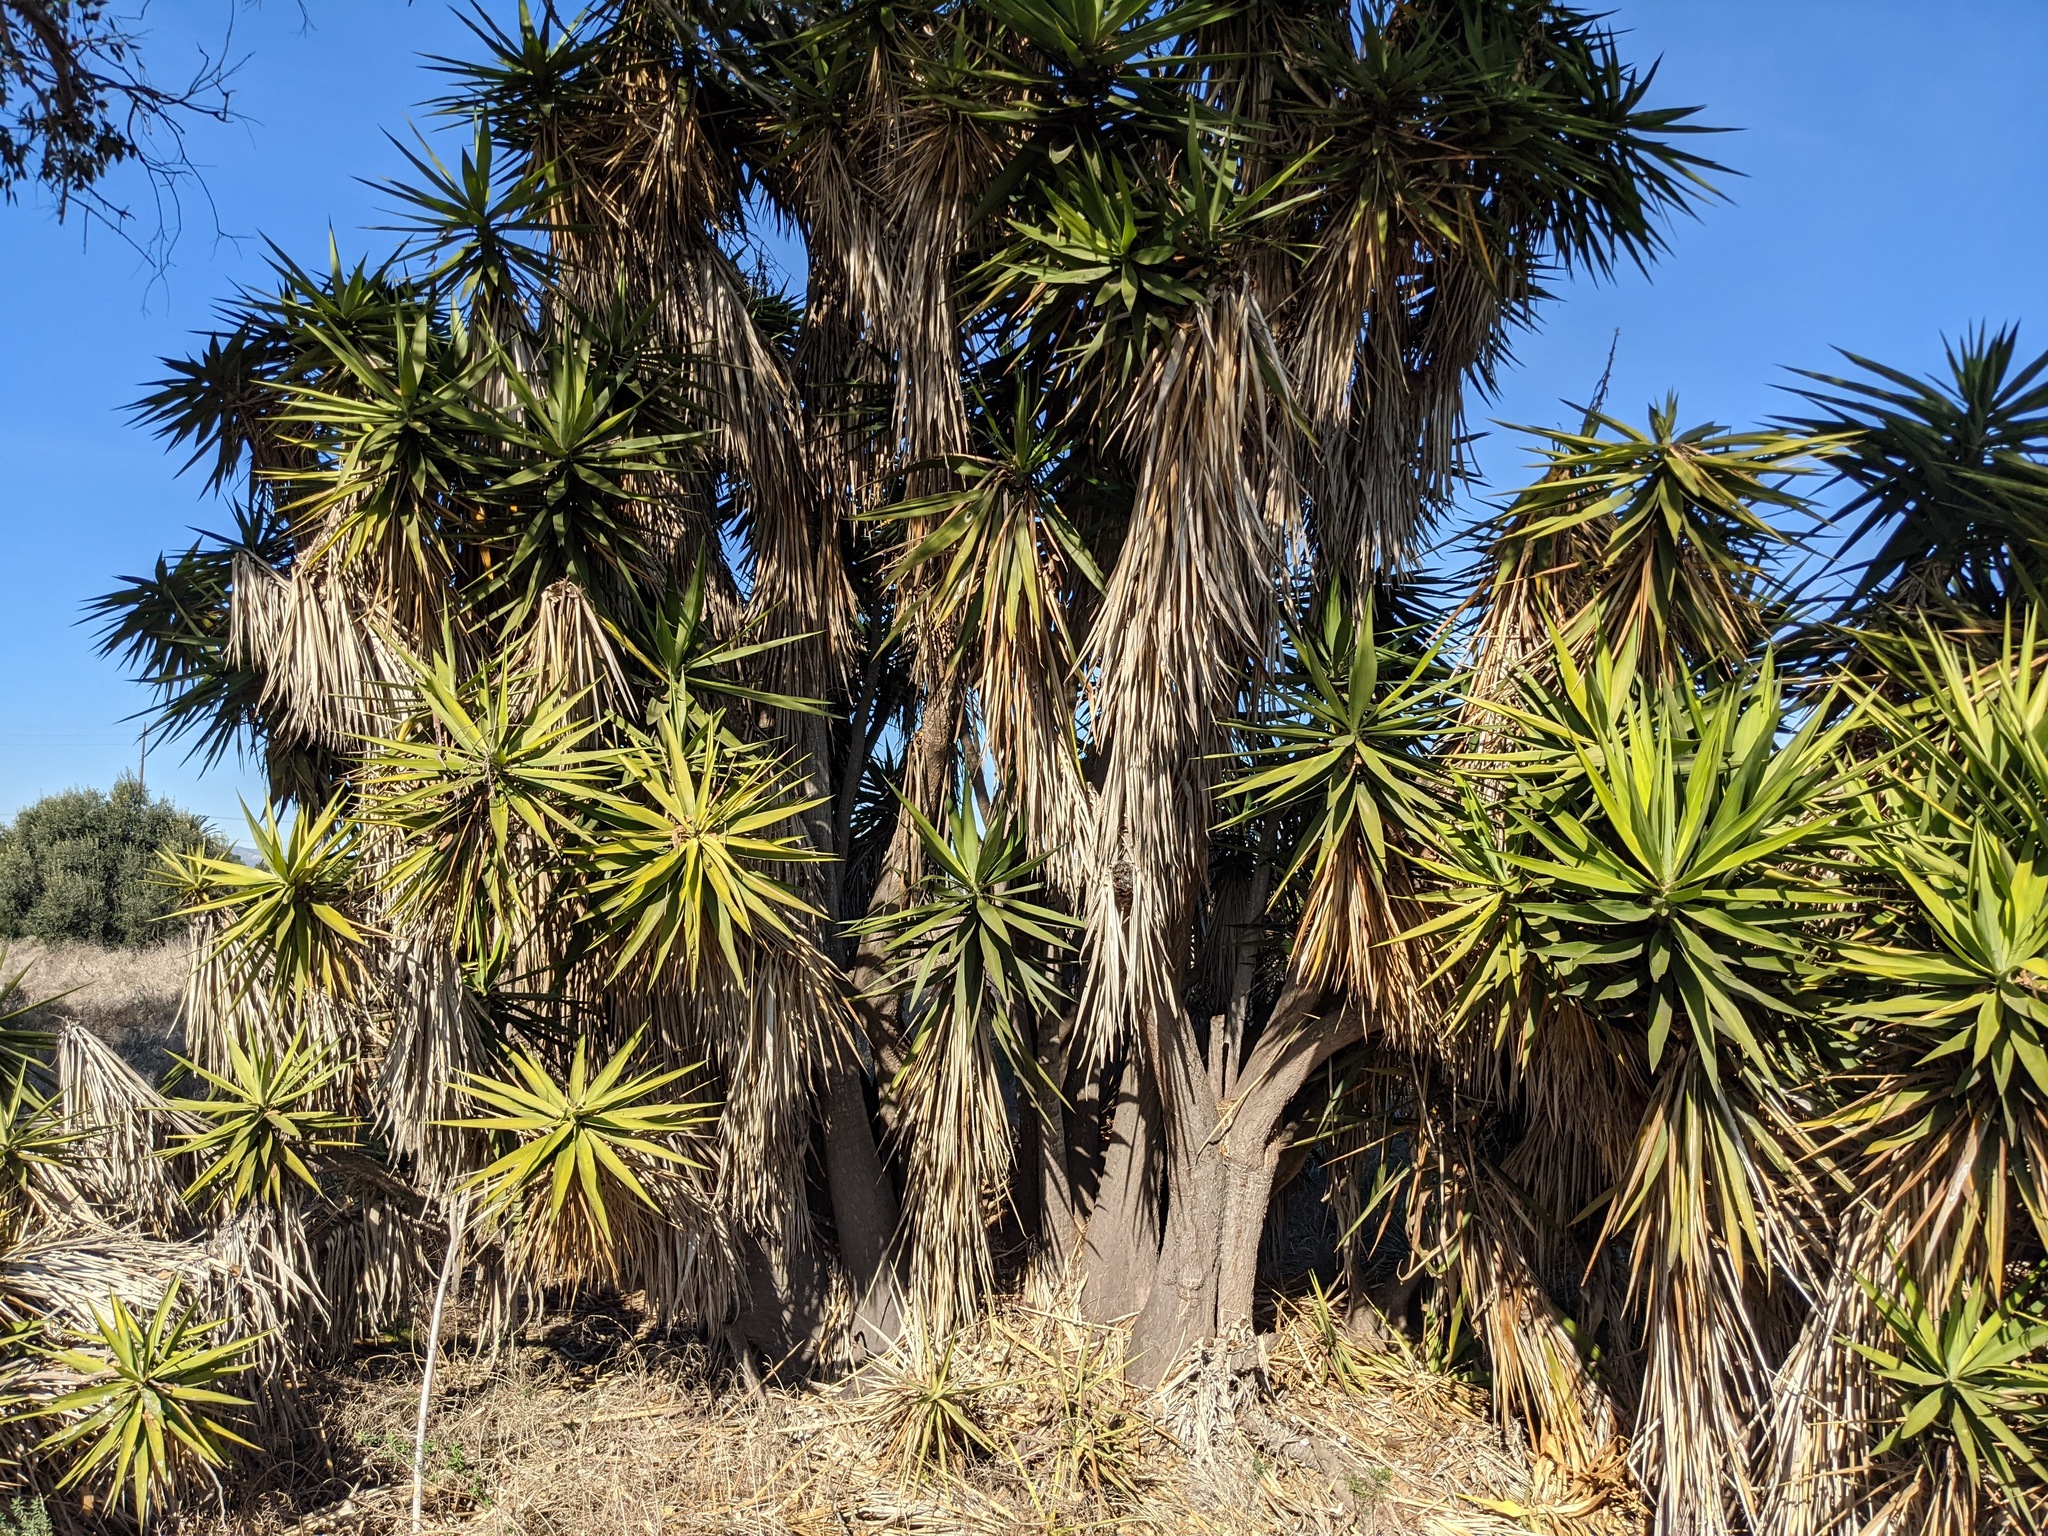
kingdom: Plantae
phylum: Tracheophyta
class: Liliopsida
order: Asparagales
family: Asparagaceae
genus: Yucca
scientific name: Yucca gigantea
